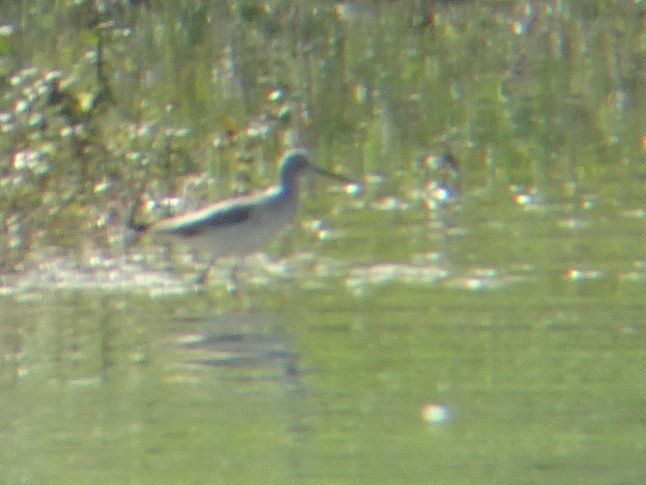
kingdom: Animalia
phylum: Chordata
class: Aves
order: Charadriiformes
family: Scolopacidae
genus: Tringa
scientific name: Tringa nebularia
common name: Common greenshank
